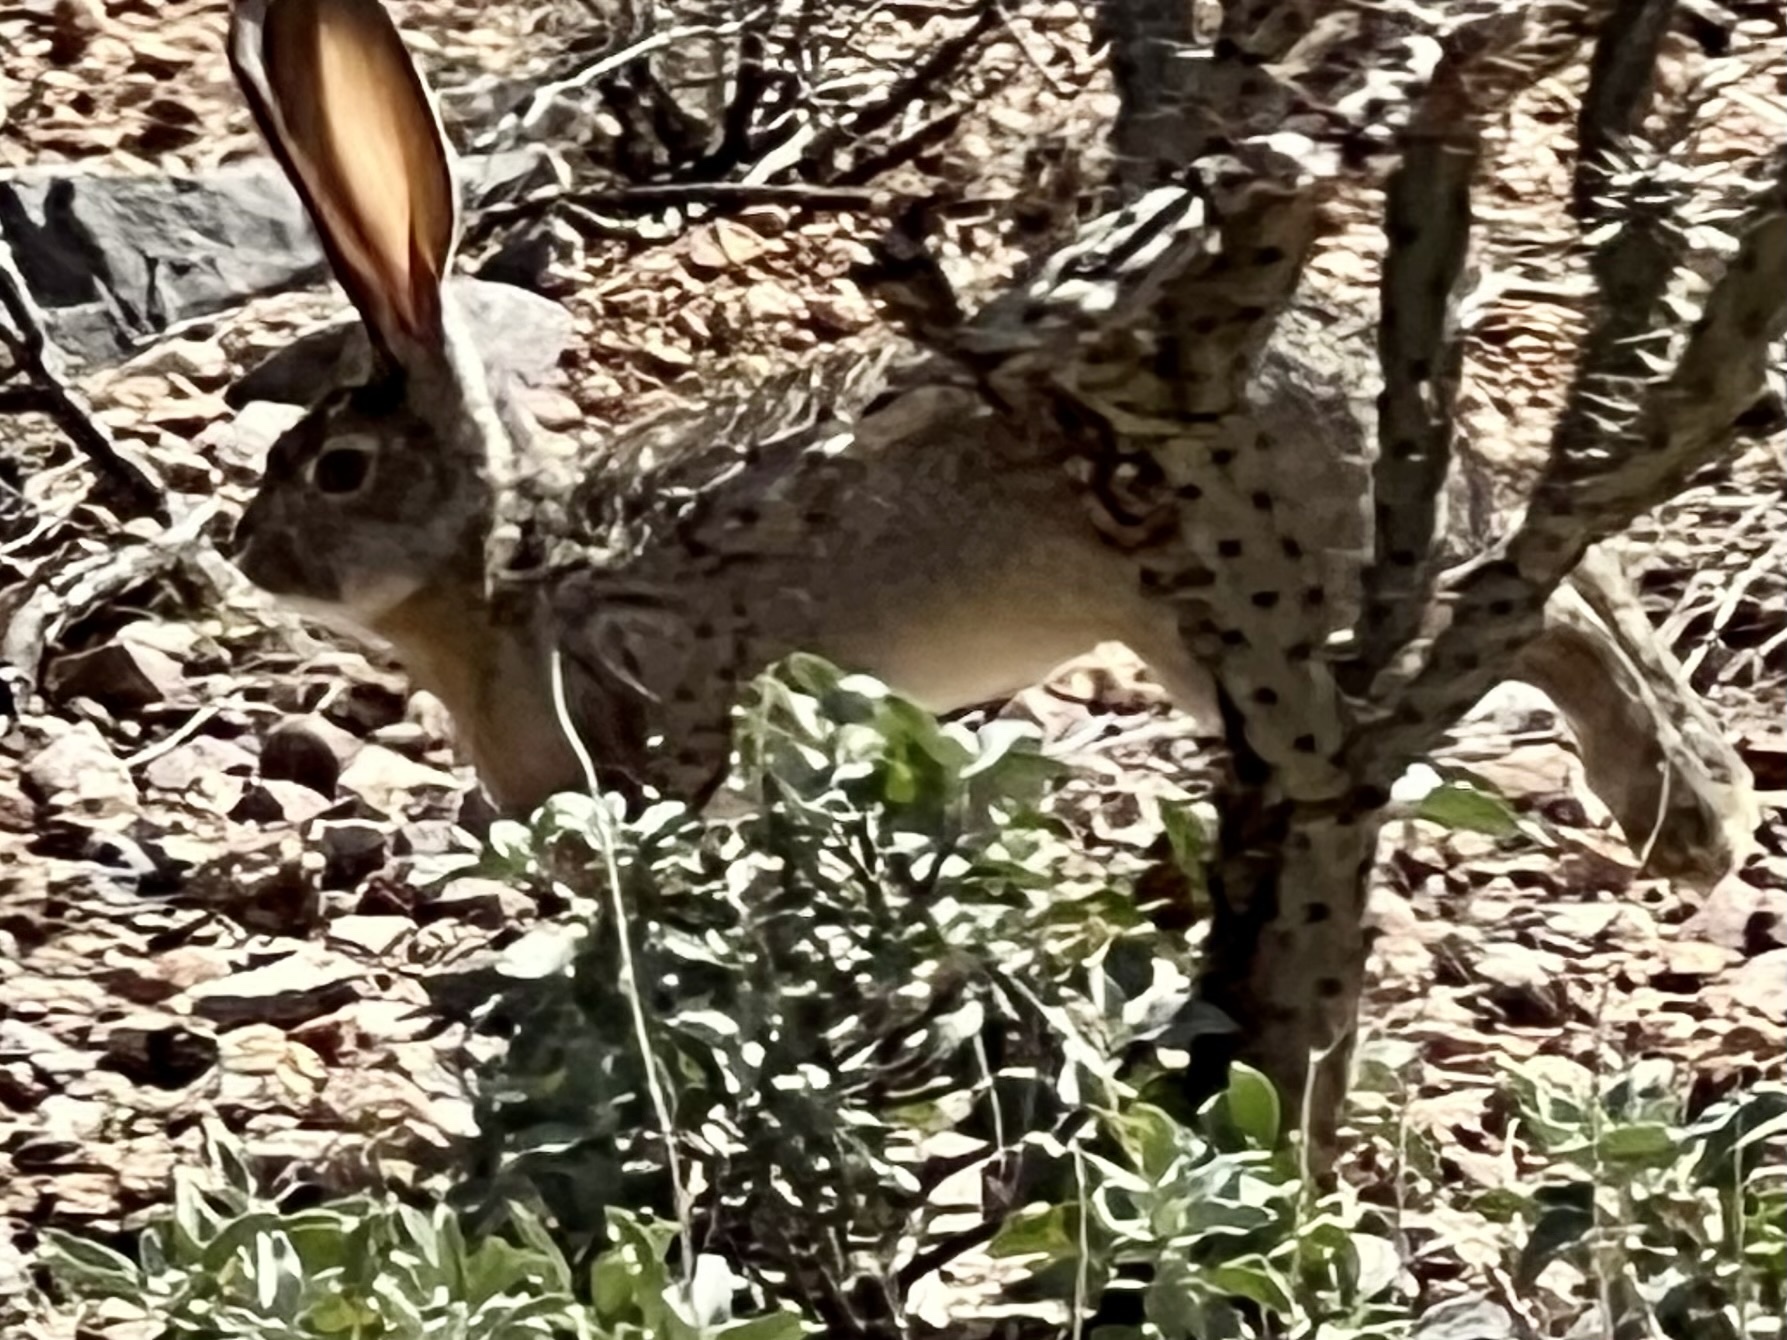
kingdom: Animalia
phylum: Chordata
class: Mammalia
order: Lagomorpha
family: Leporidae
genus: Lepus
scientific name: Lepus californicus
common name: Black-tailed jackrabbit
